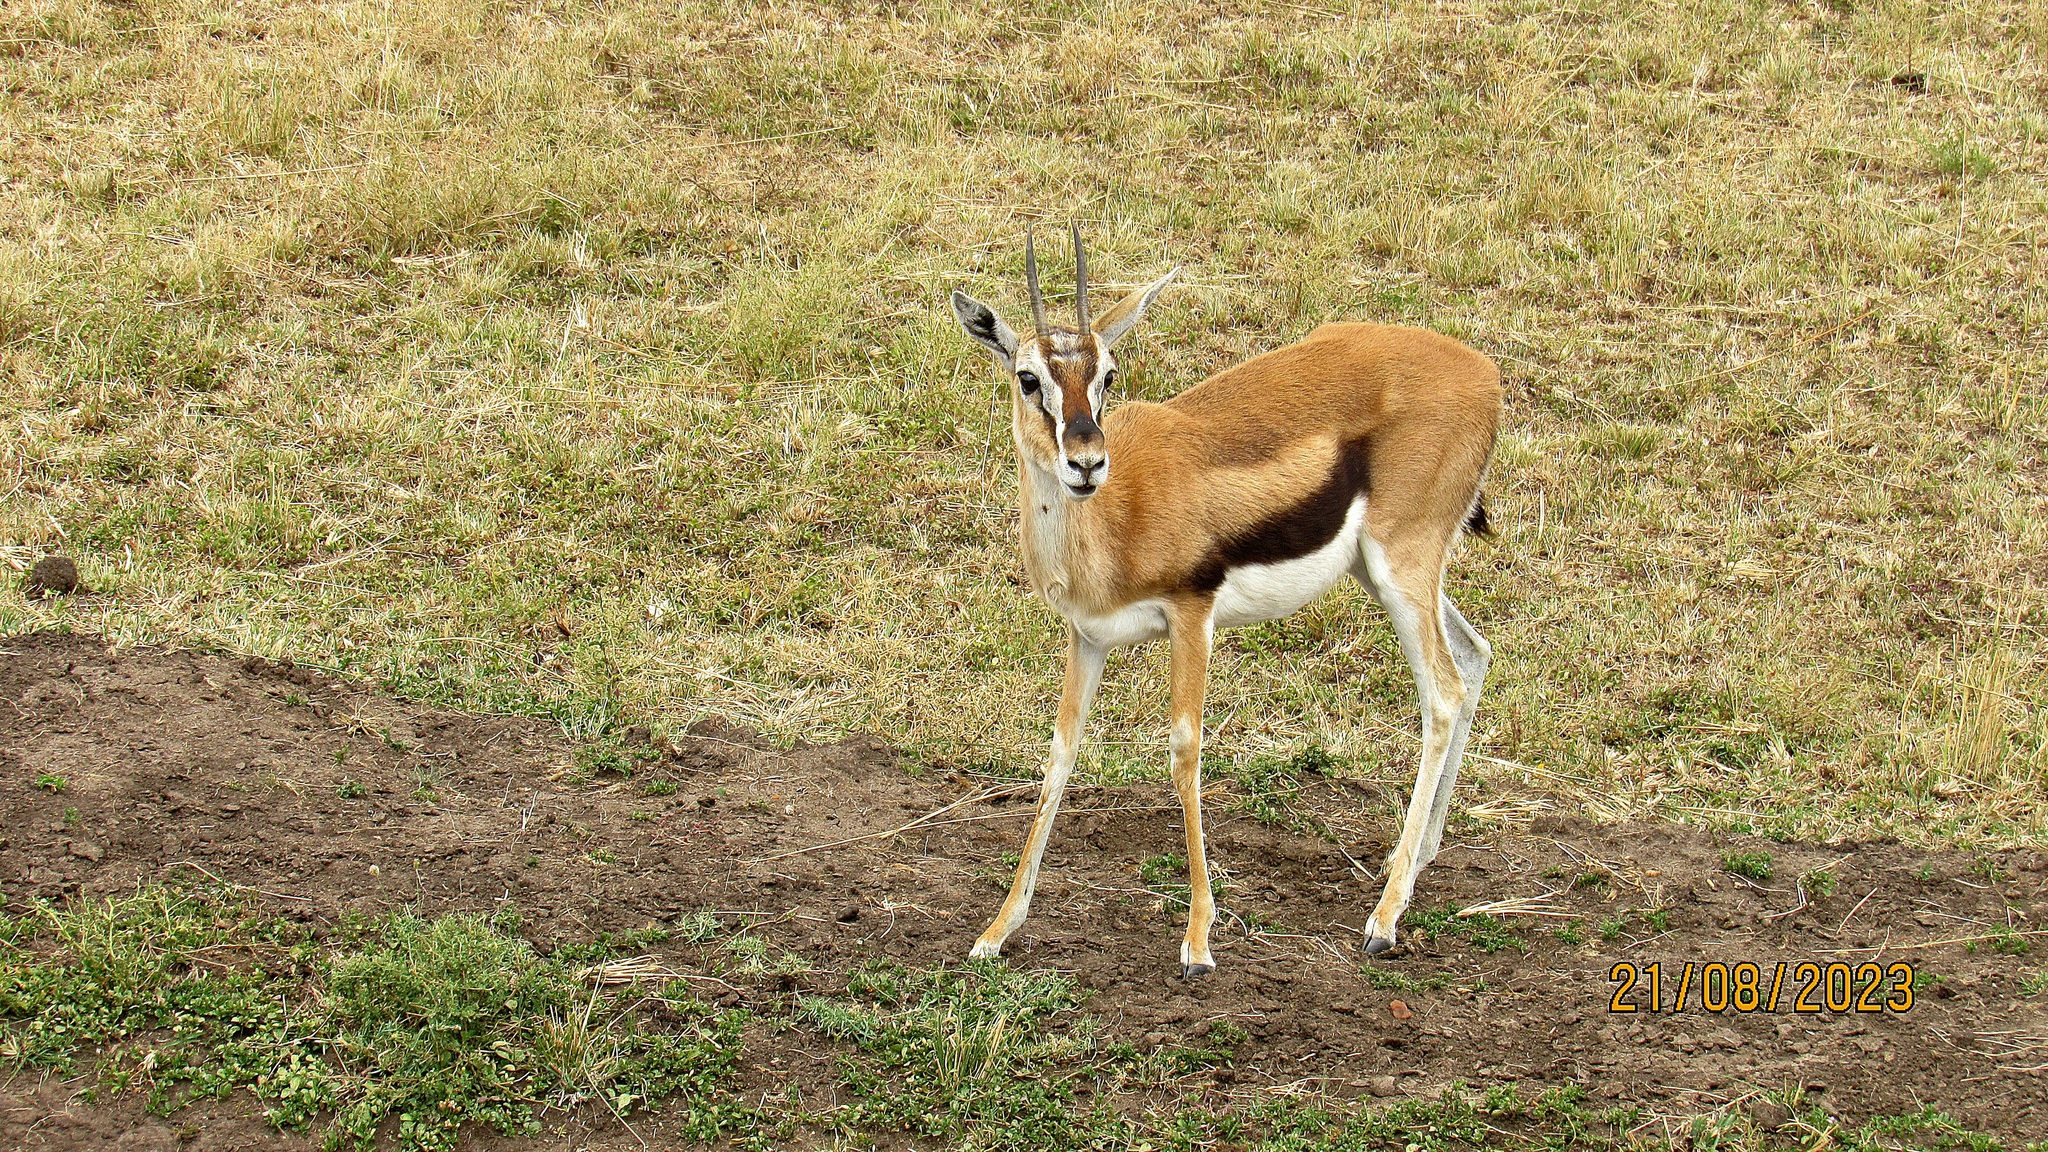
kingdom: Animalia
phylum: Chordata
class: Mammalia
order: Artiodactyla
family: Bovidae
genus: Eudorcas
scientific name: Eudorcas thomsonii
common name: Thomson's gazelle
